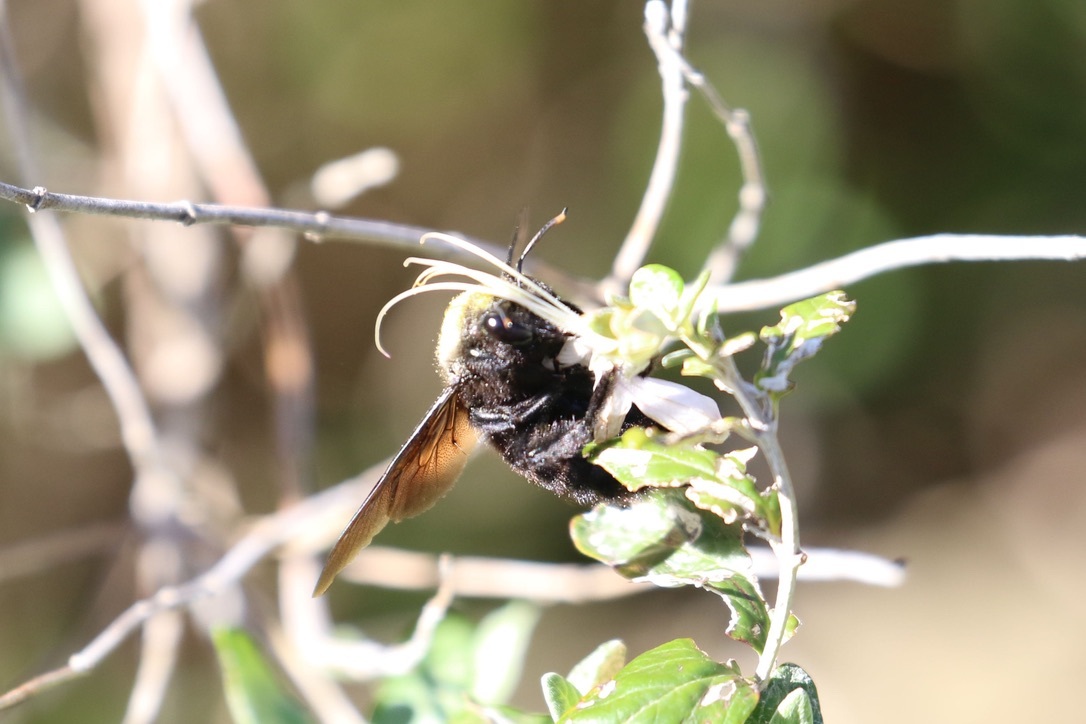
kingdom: Animalia
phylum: Arthropoda
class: Insecta
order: Hymenoptera
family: Apidae
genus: Xylocopa
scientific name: Xylocopa violacea
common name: Violet carpenter bee
